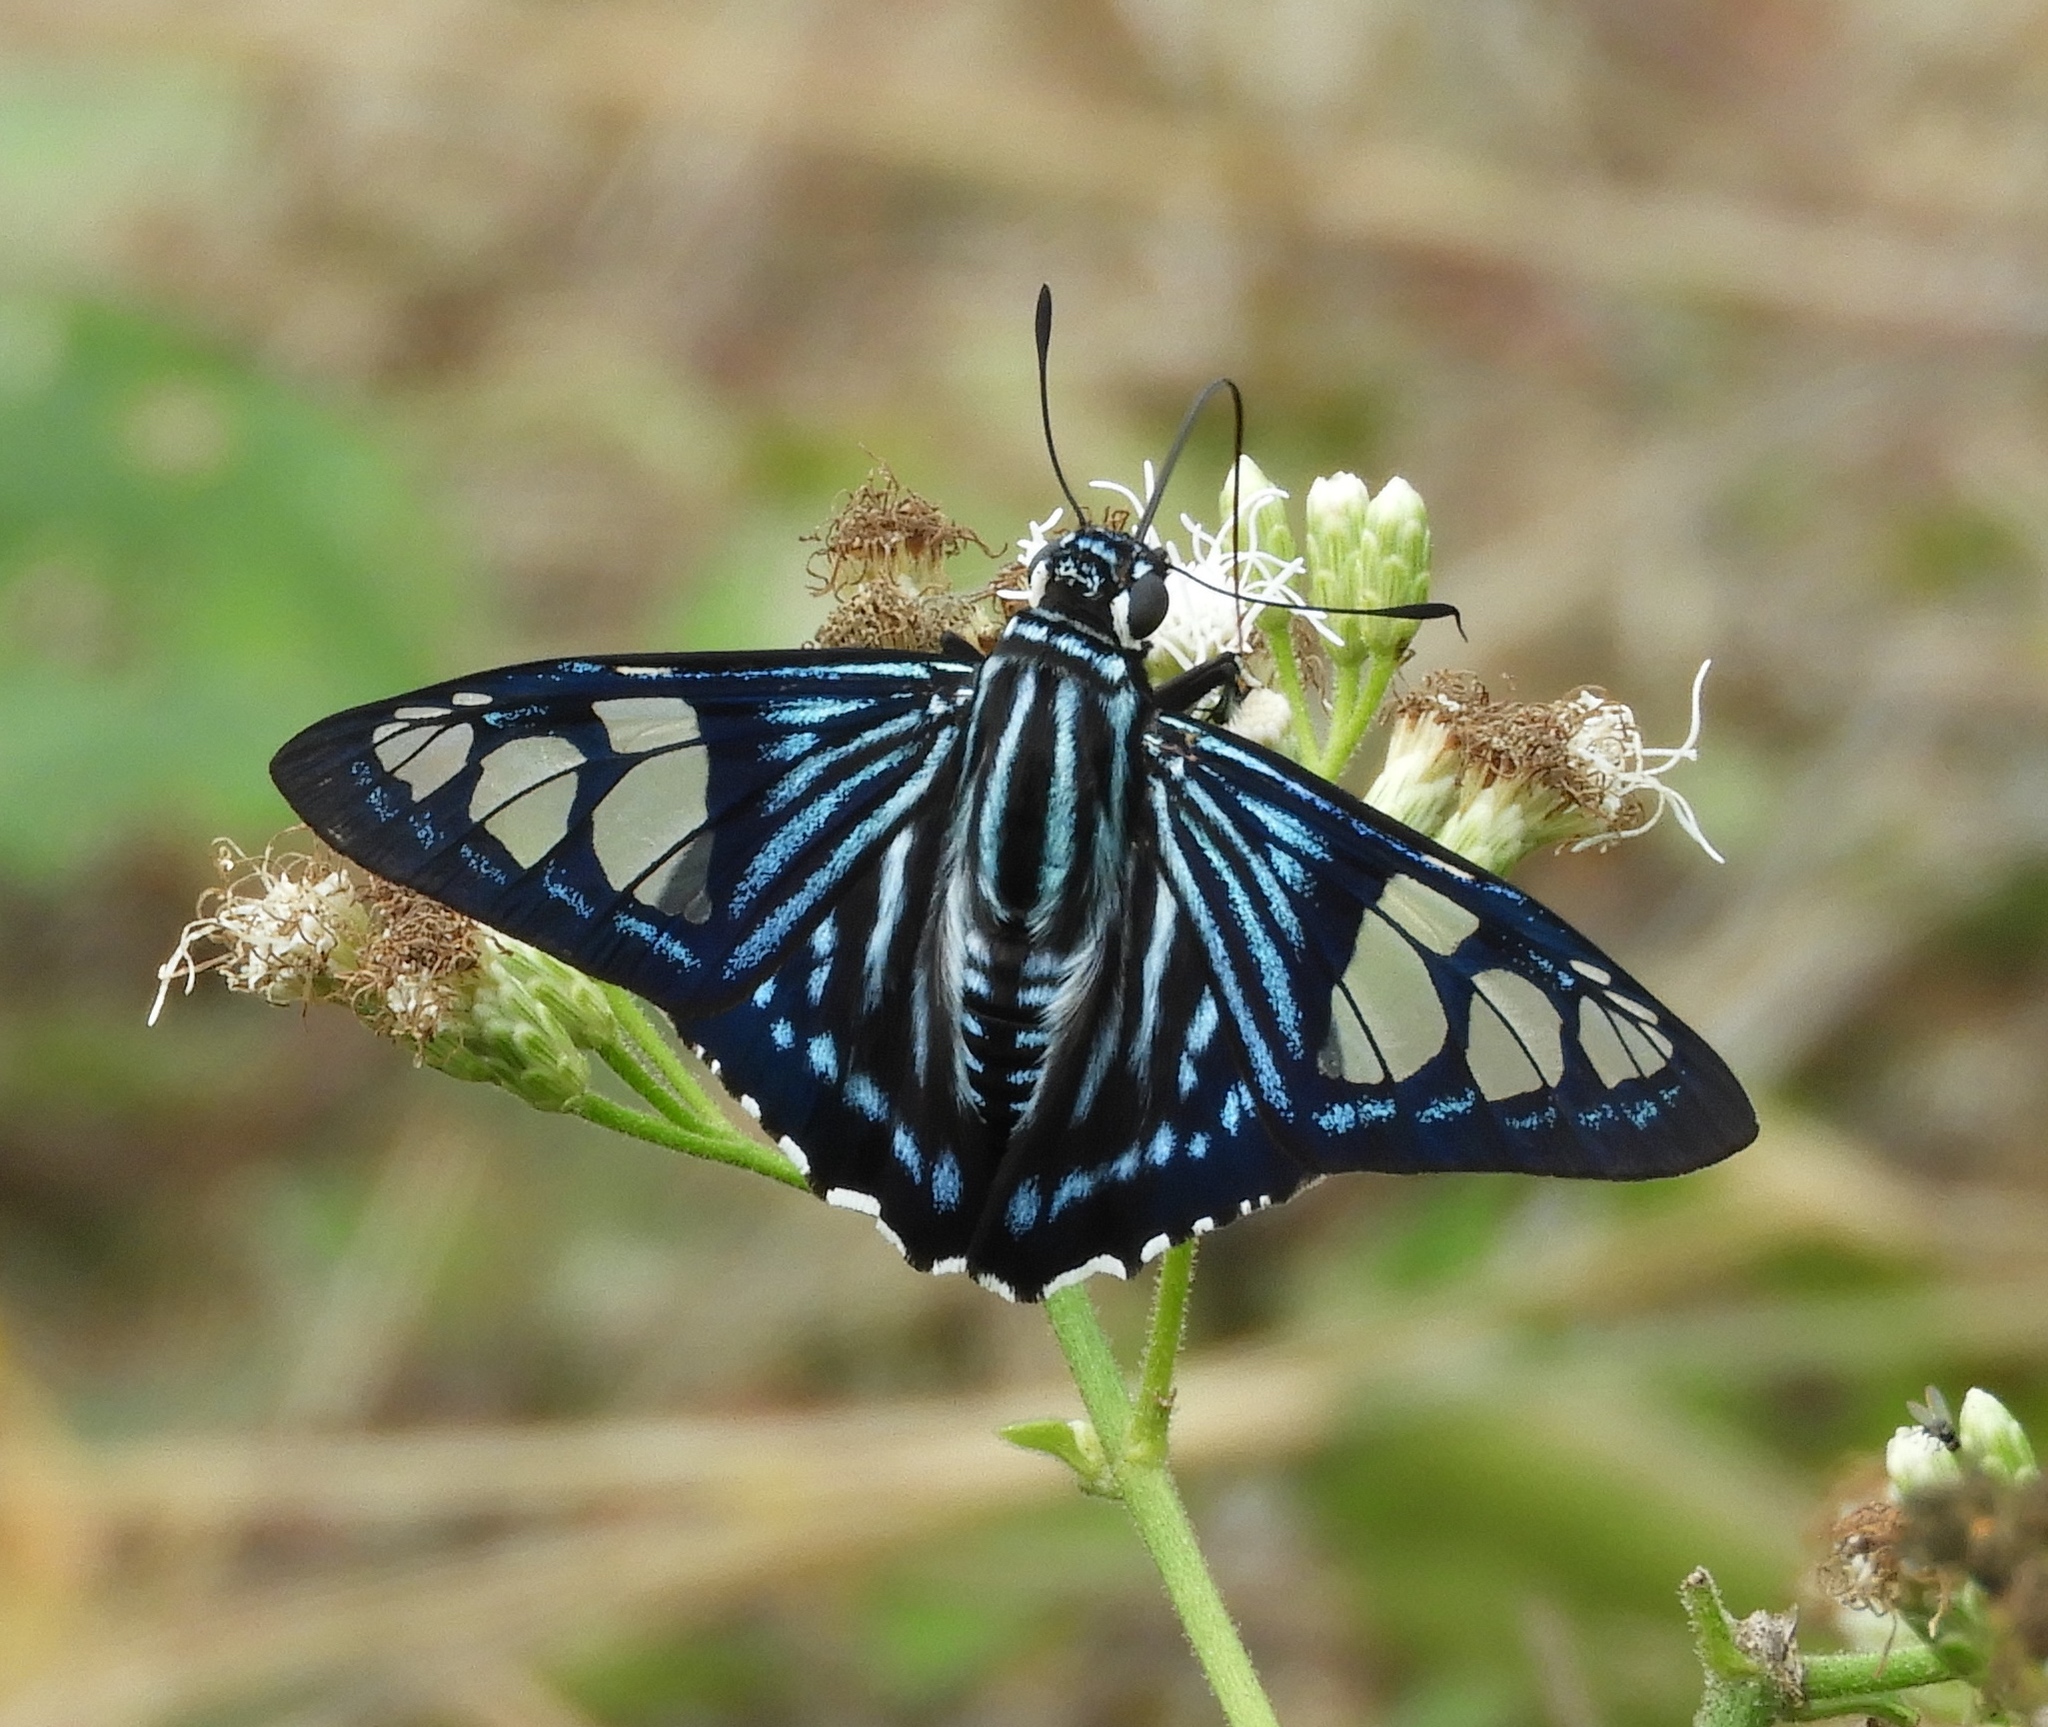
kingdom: Animalia
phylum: Arthropoda
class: Insecta
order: Lepidoptera
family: Hesperiidae
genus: Phocides
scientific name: Phocides pigmalion
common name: Mangrove skipper
